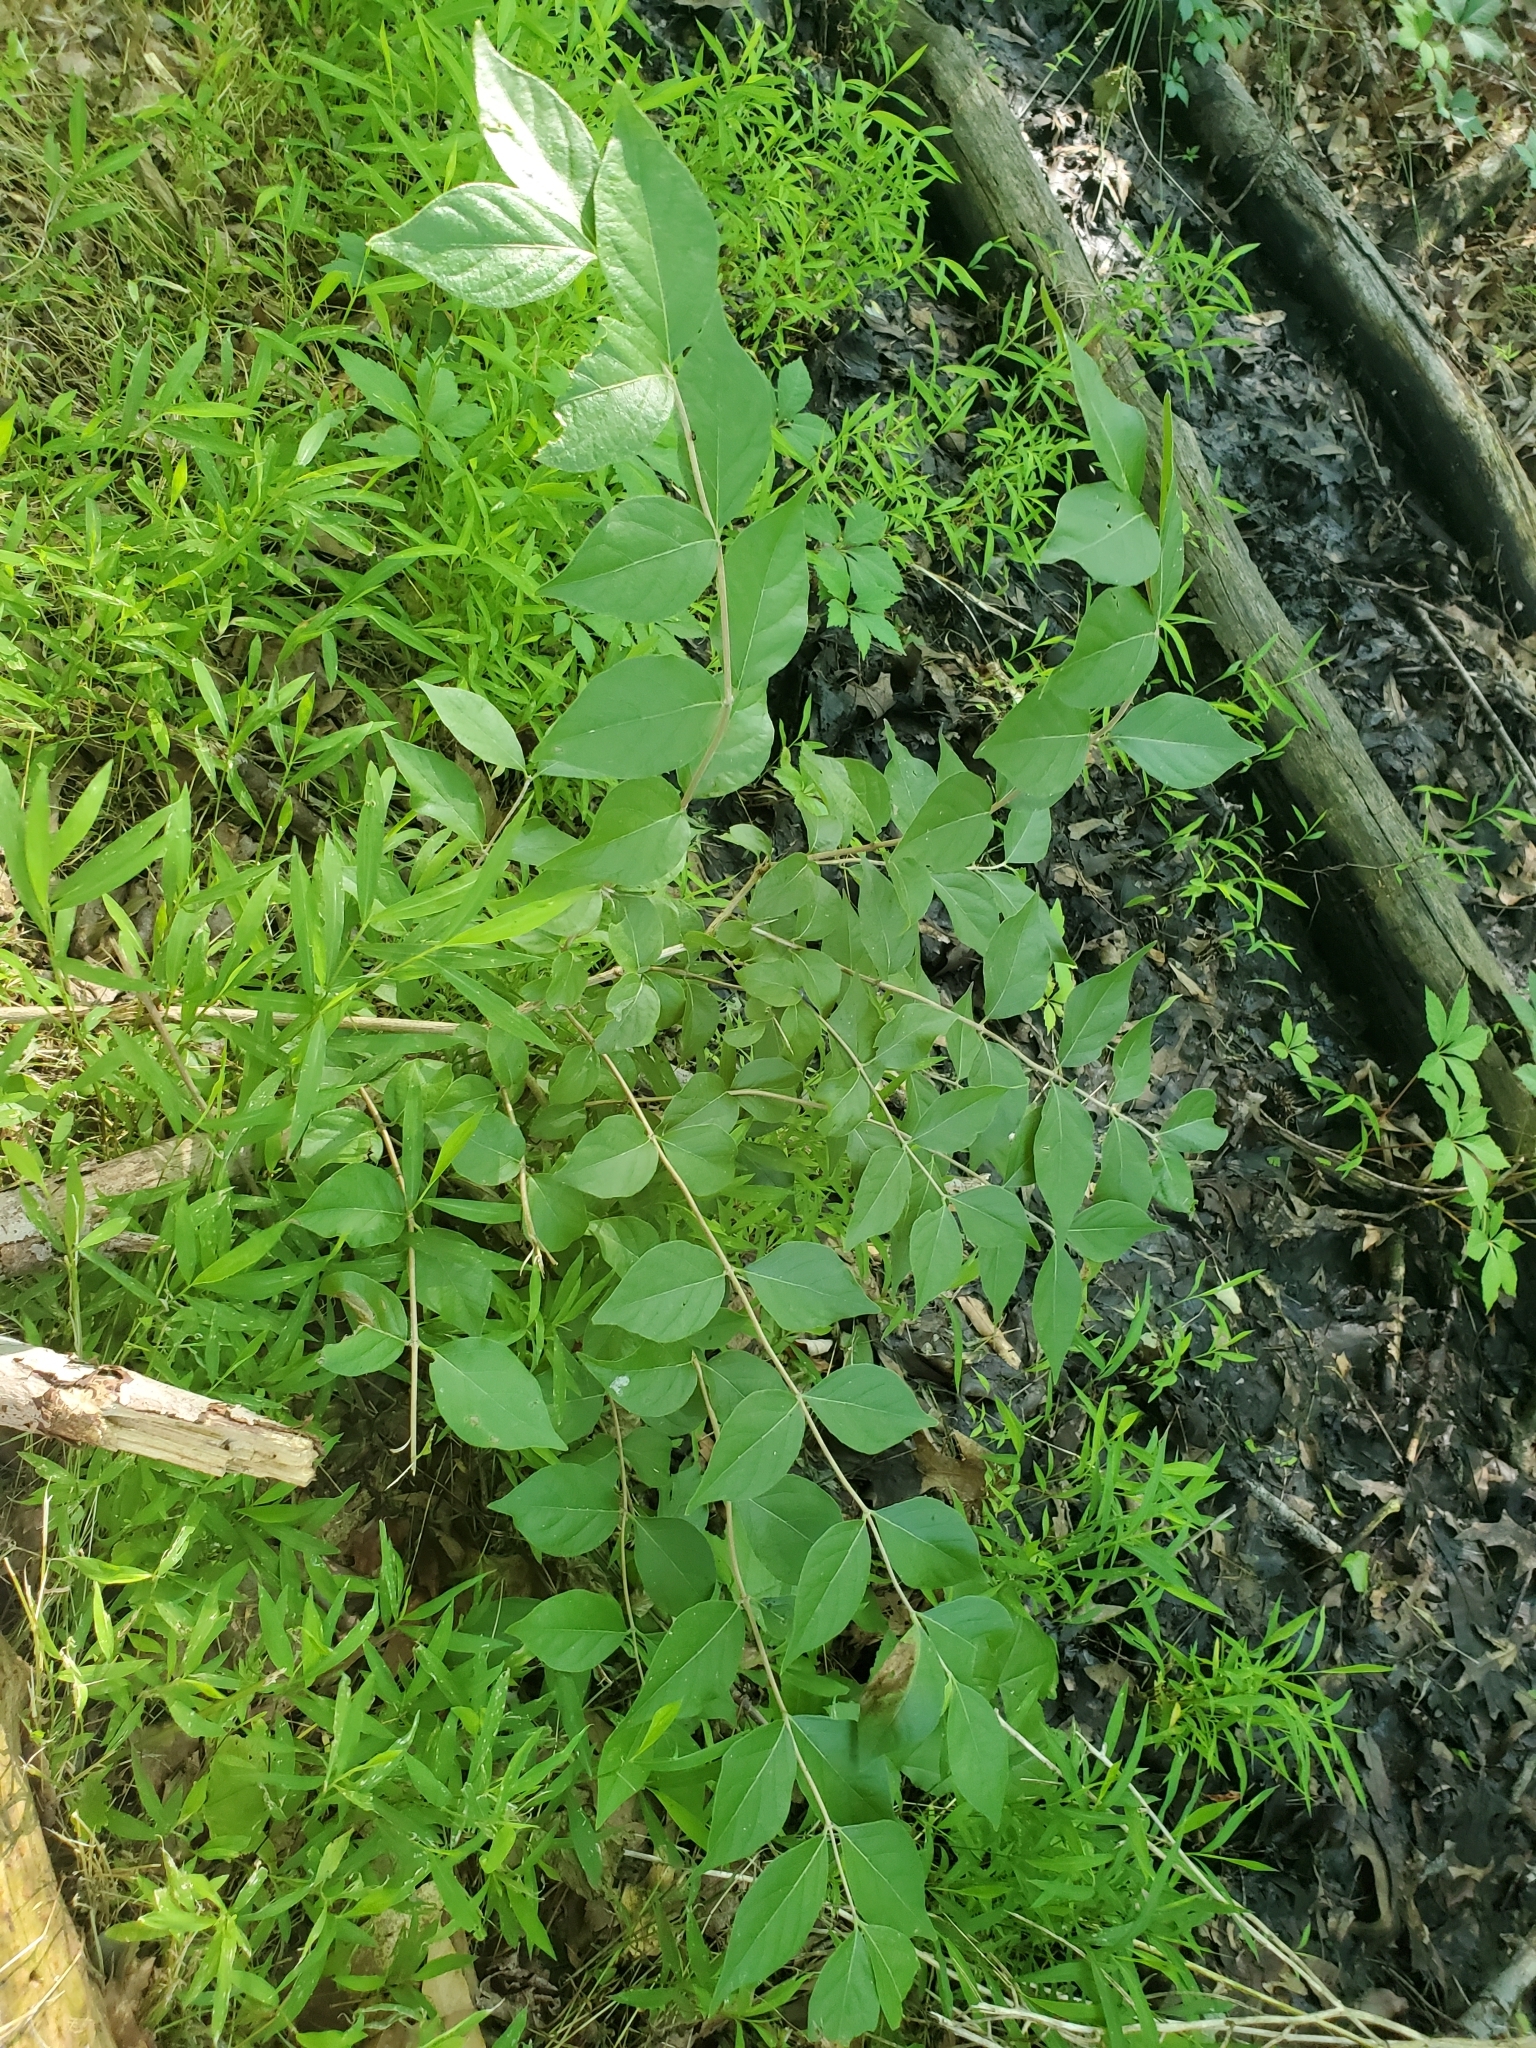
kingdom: Plantae
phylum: Tracheophyta
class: Magnoliopsida
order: Dipsacales
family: Caprifoliaceae
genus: Lonicera
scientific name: Lonicera maackii
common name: Amur honeysuckle
